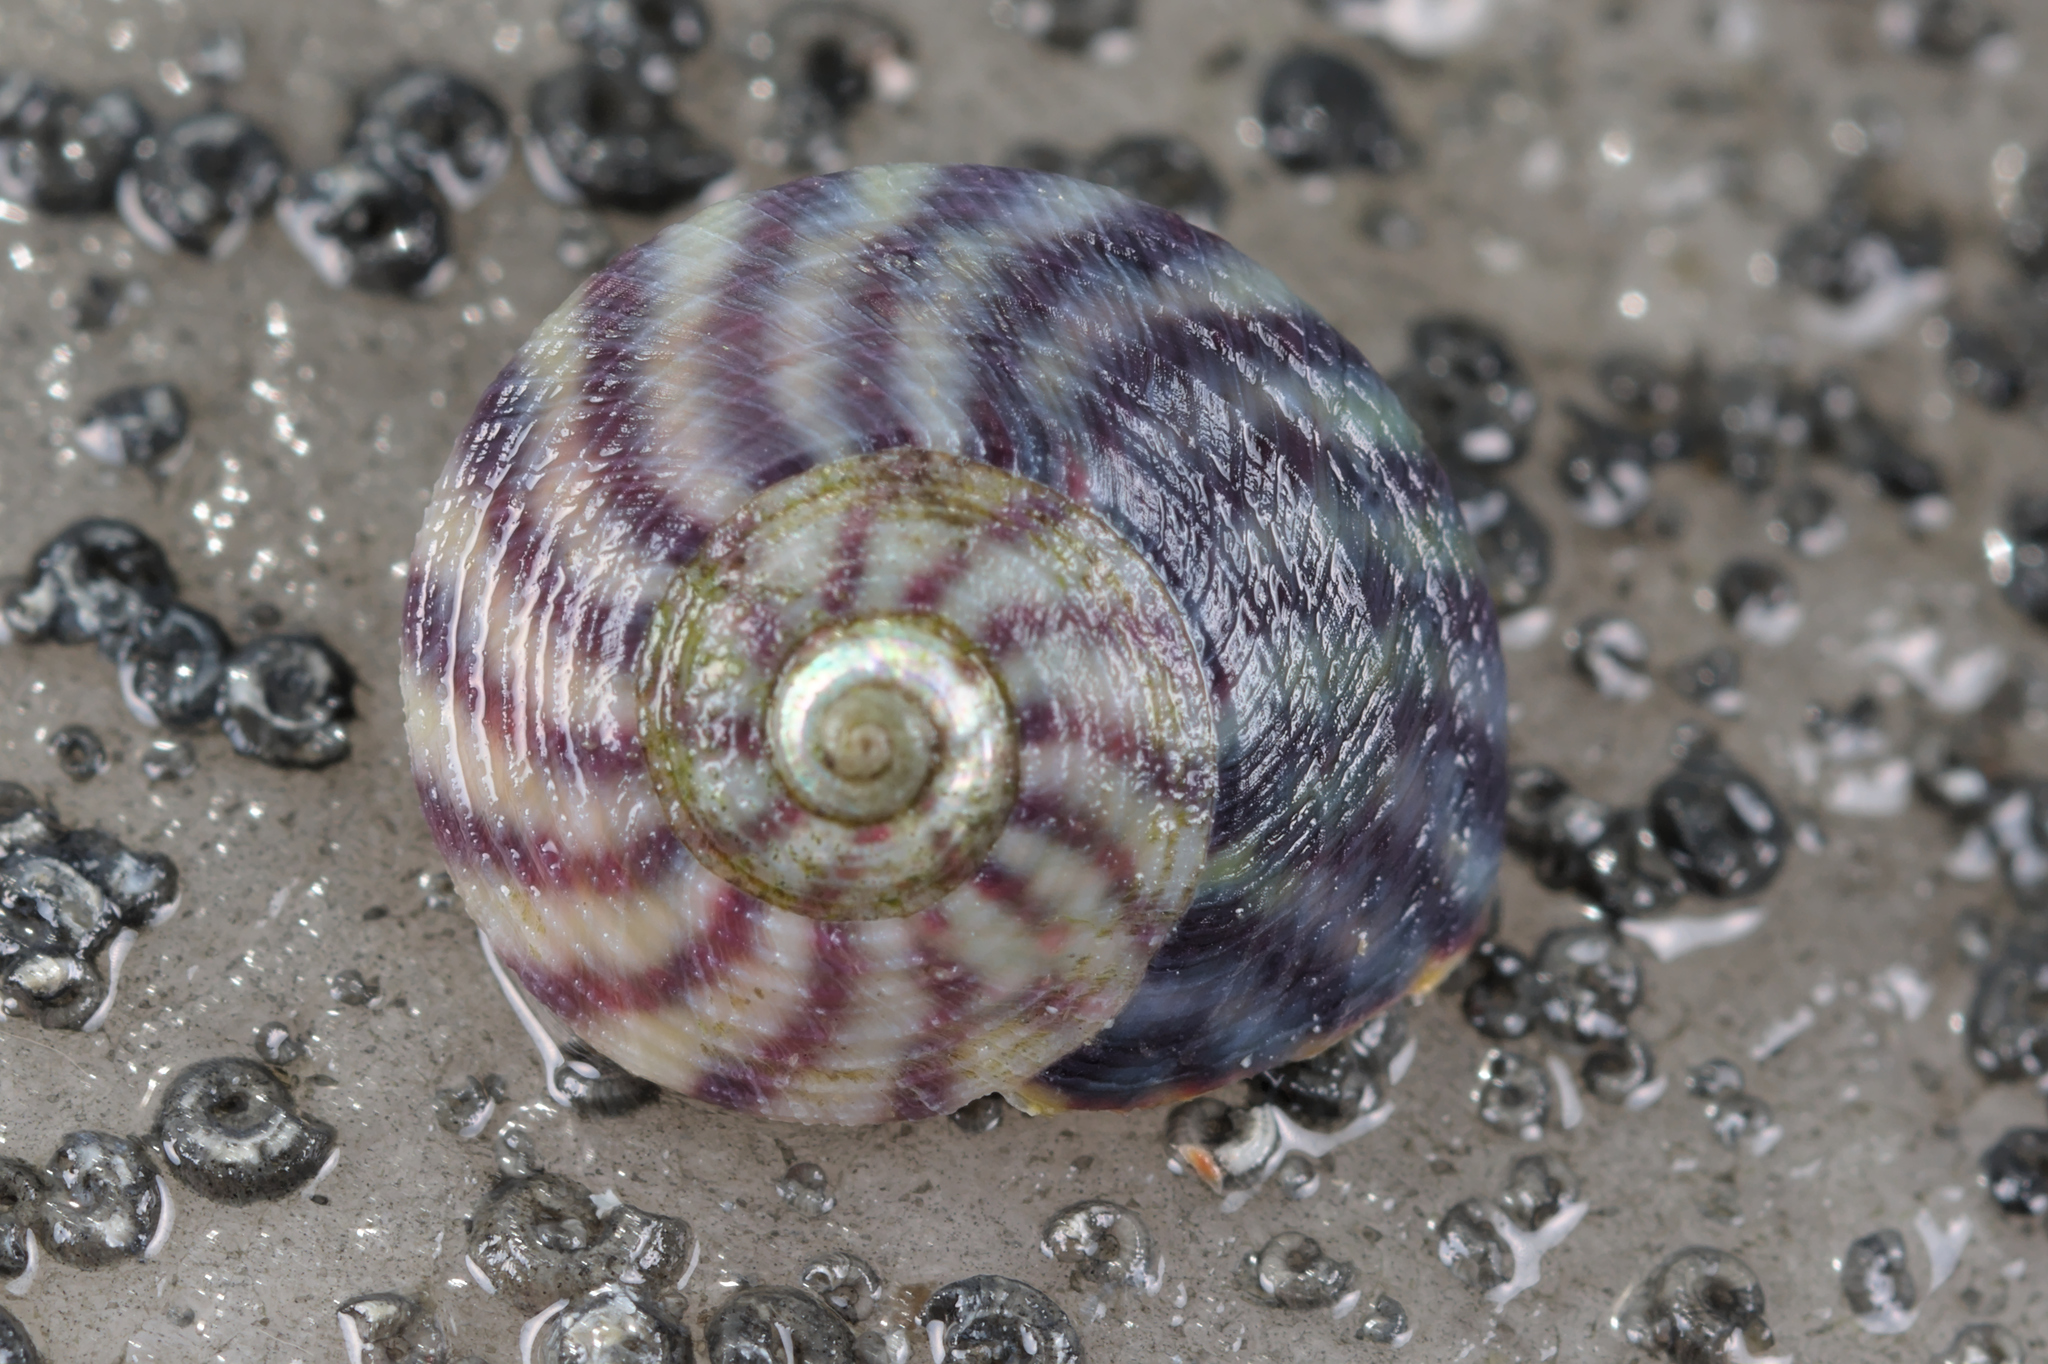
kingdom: Animalia
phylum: Mollusca
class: Gastropoda
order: Trochida
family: Trochidae
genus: Steromphala
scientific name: Steromphala umbilicalis
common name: Flat top shell
